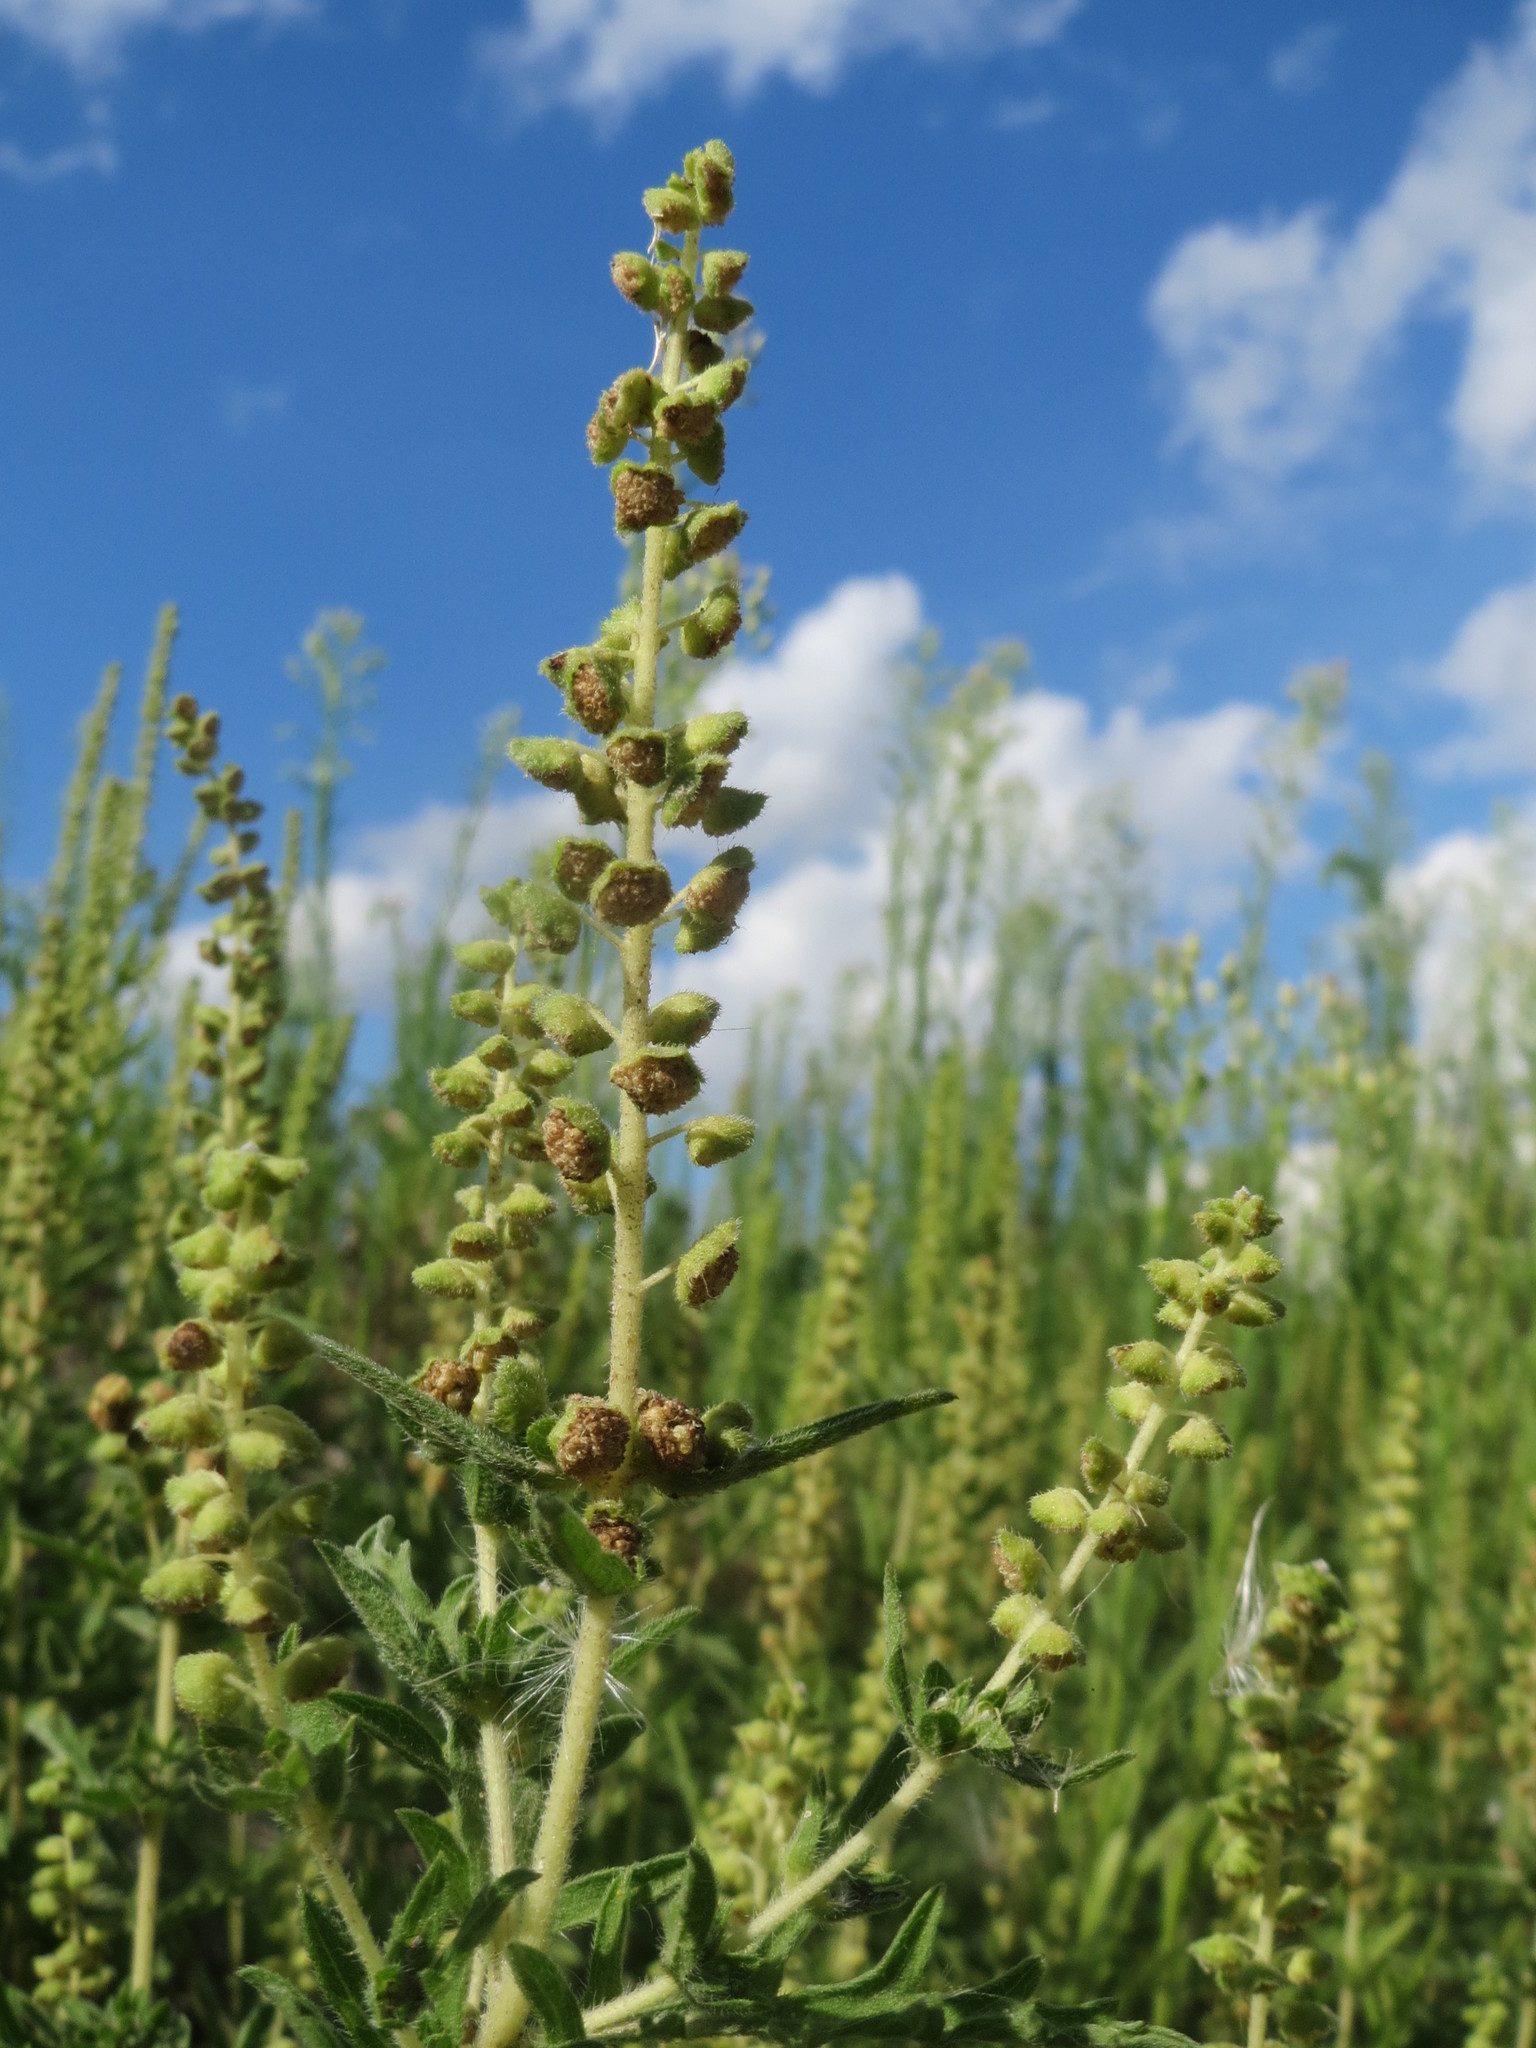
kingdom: Plantae
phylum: Tracheophyta
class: Magnoliopsida
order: Asterales
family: Asteraceae
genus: Ambrosia
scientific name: Ambrosia psilostachya
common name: Perennial ragweed
